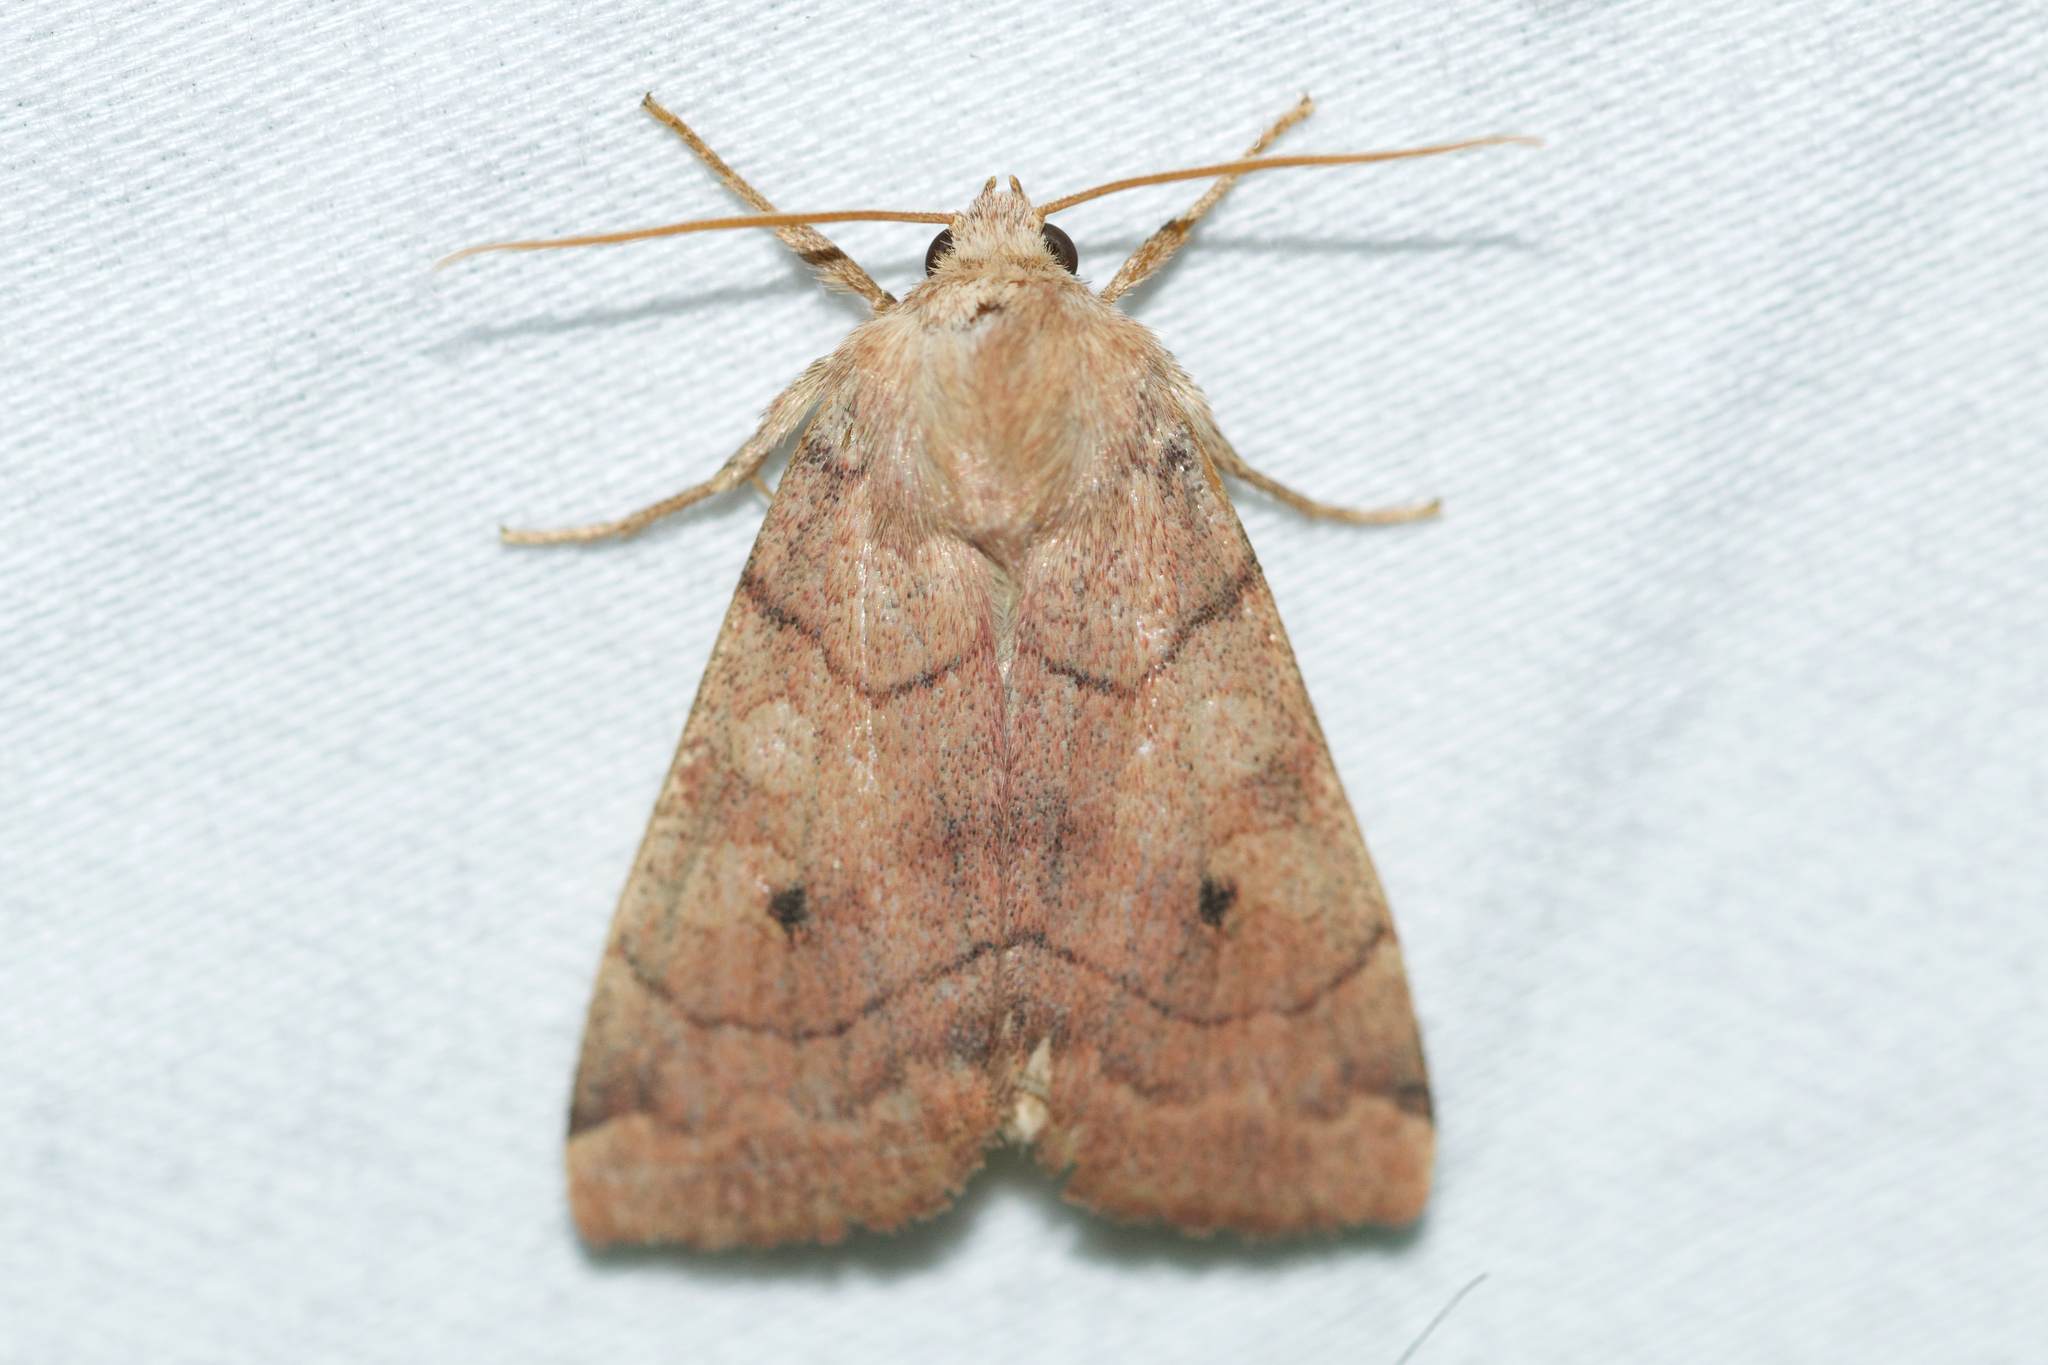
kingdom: Animalia
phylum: Arthropoda
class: Insecta
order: Lepidoptera
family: Noctuidae
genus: Enargia
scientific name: Enargia infumata
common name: Smoked sallow
